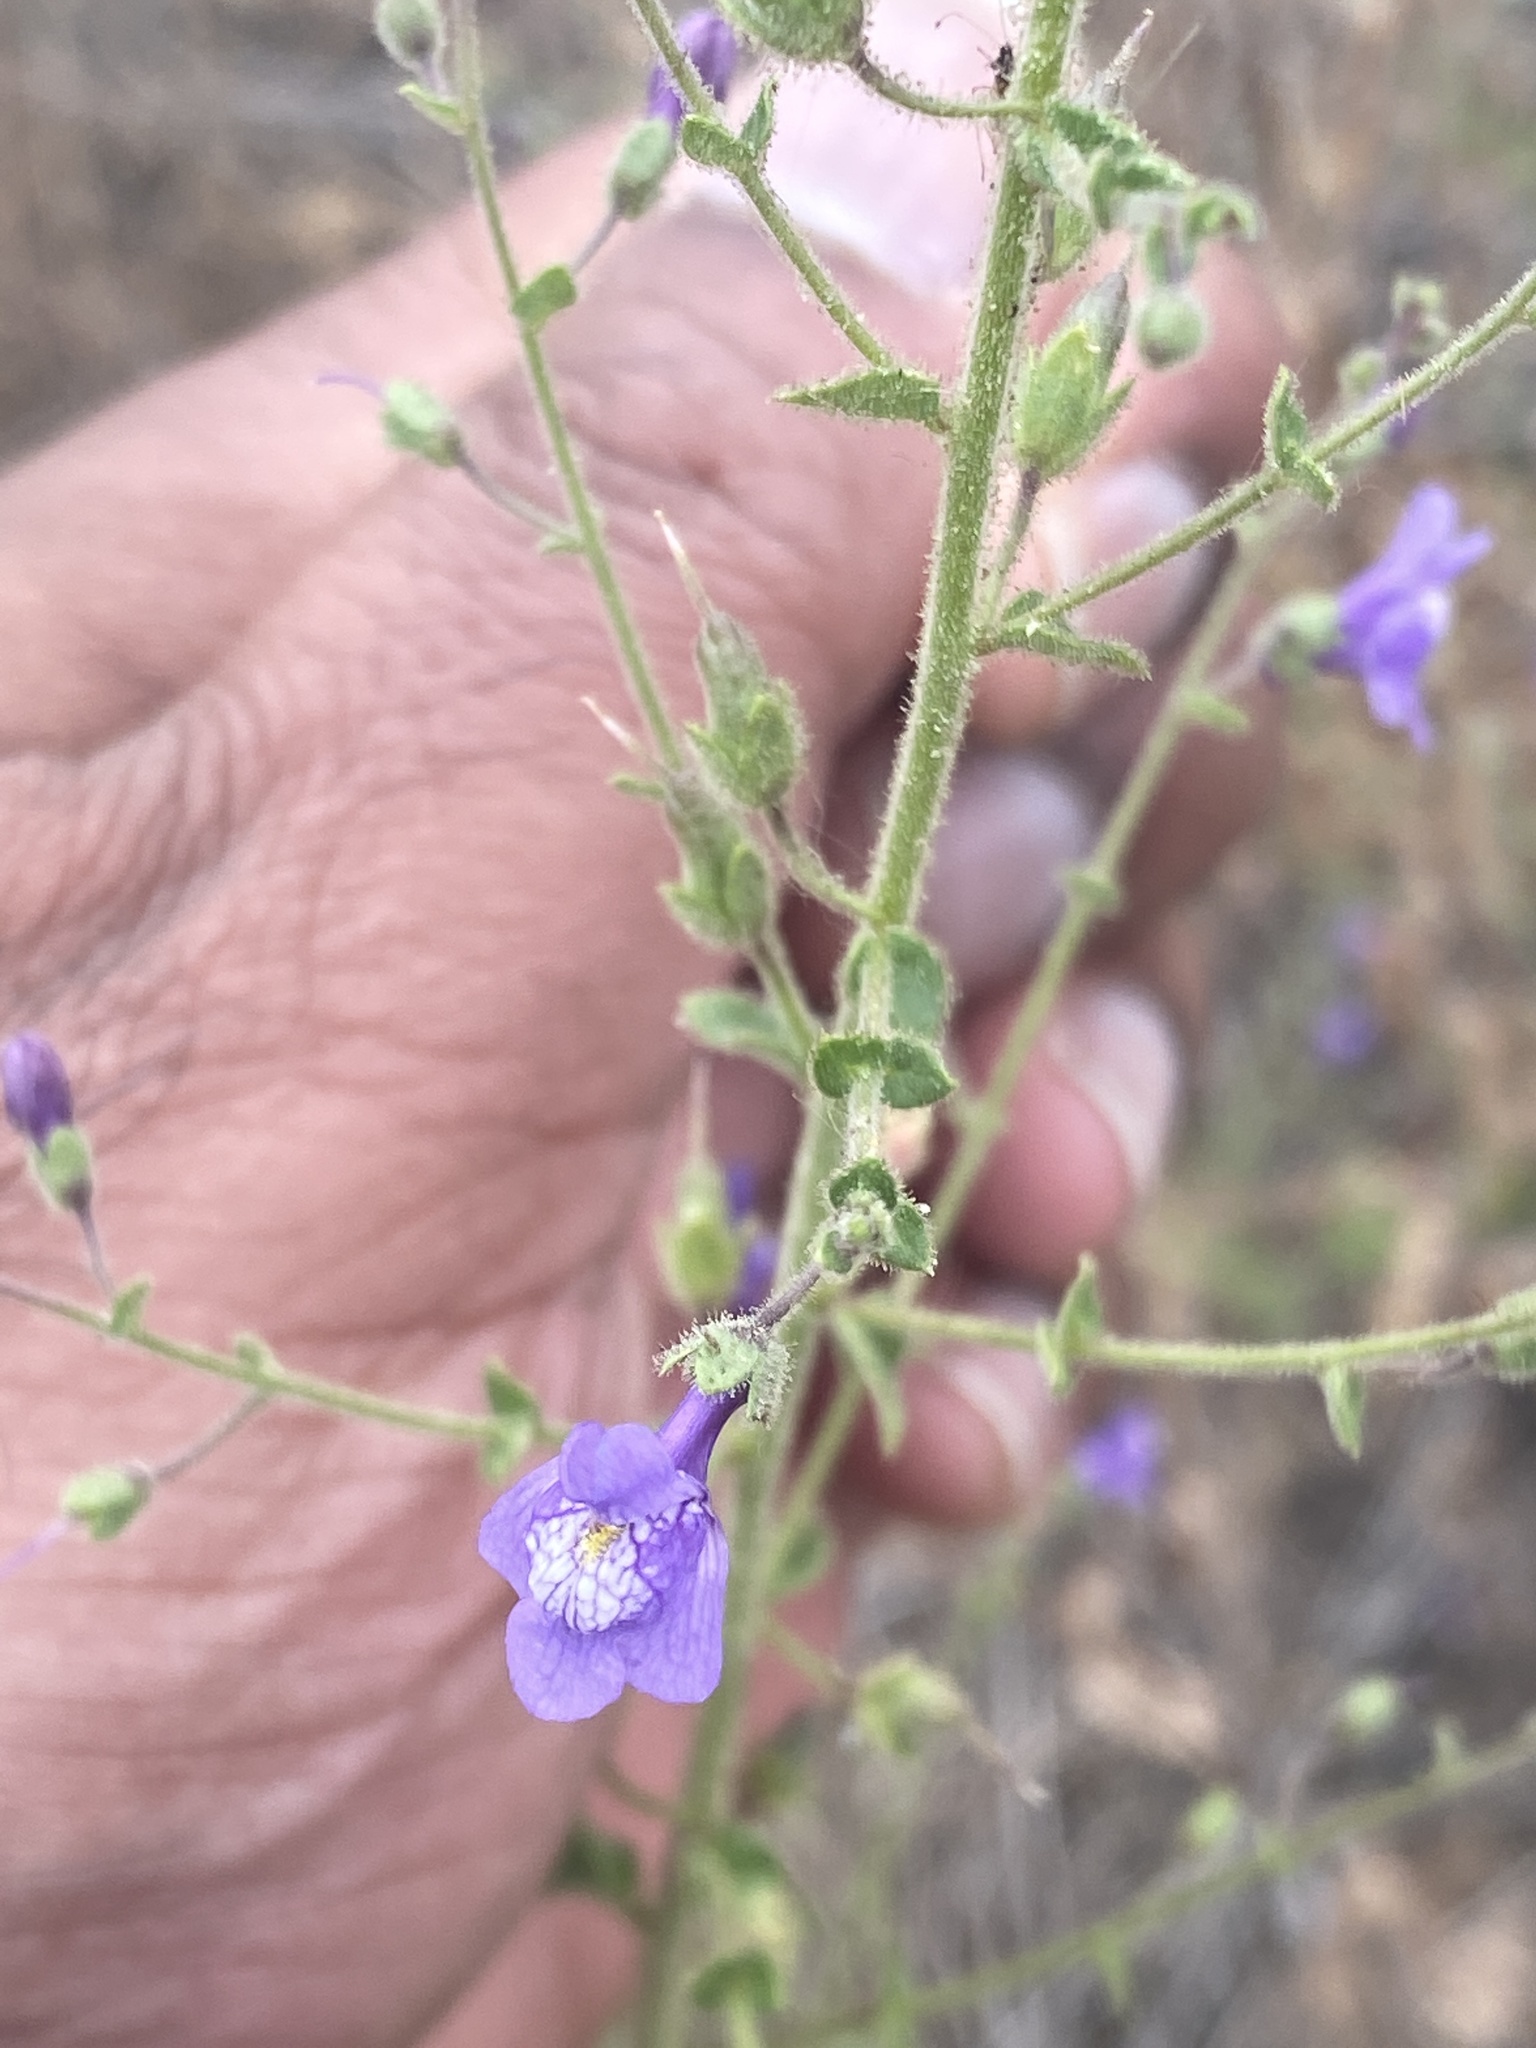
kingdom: Plantae
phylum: Tracheophyta
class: Magnoliopsida
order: Lamiales
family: Plantaginaceae
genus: Sairocarpus
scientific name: Sairocarpus nuttallianus
